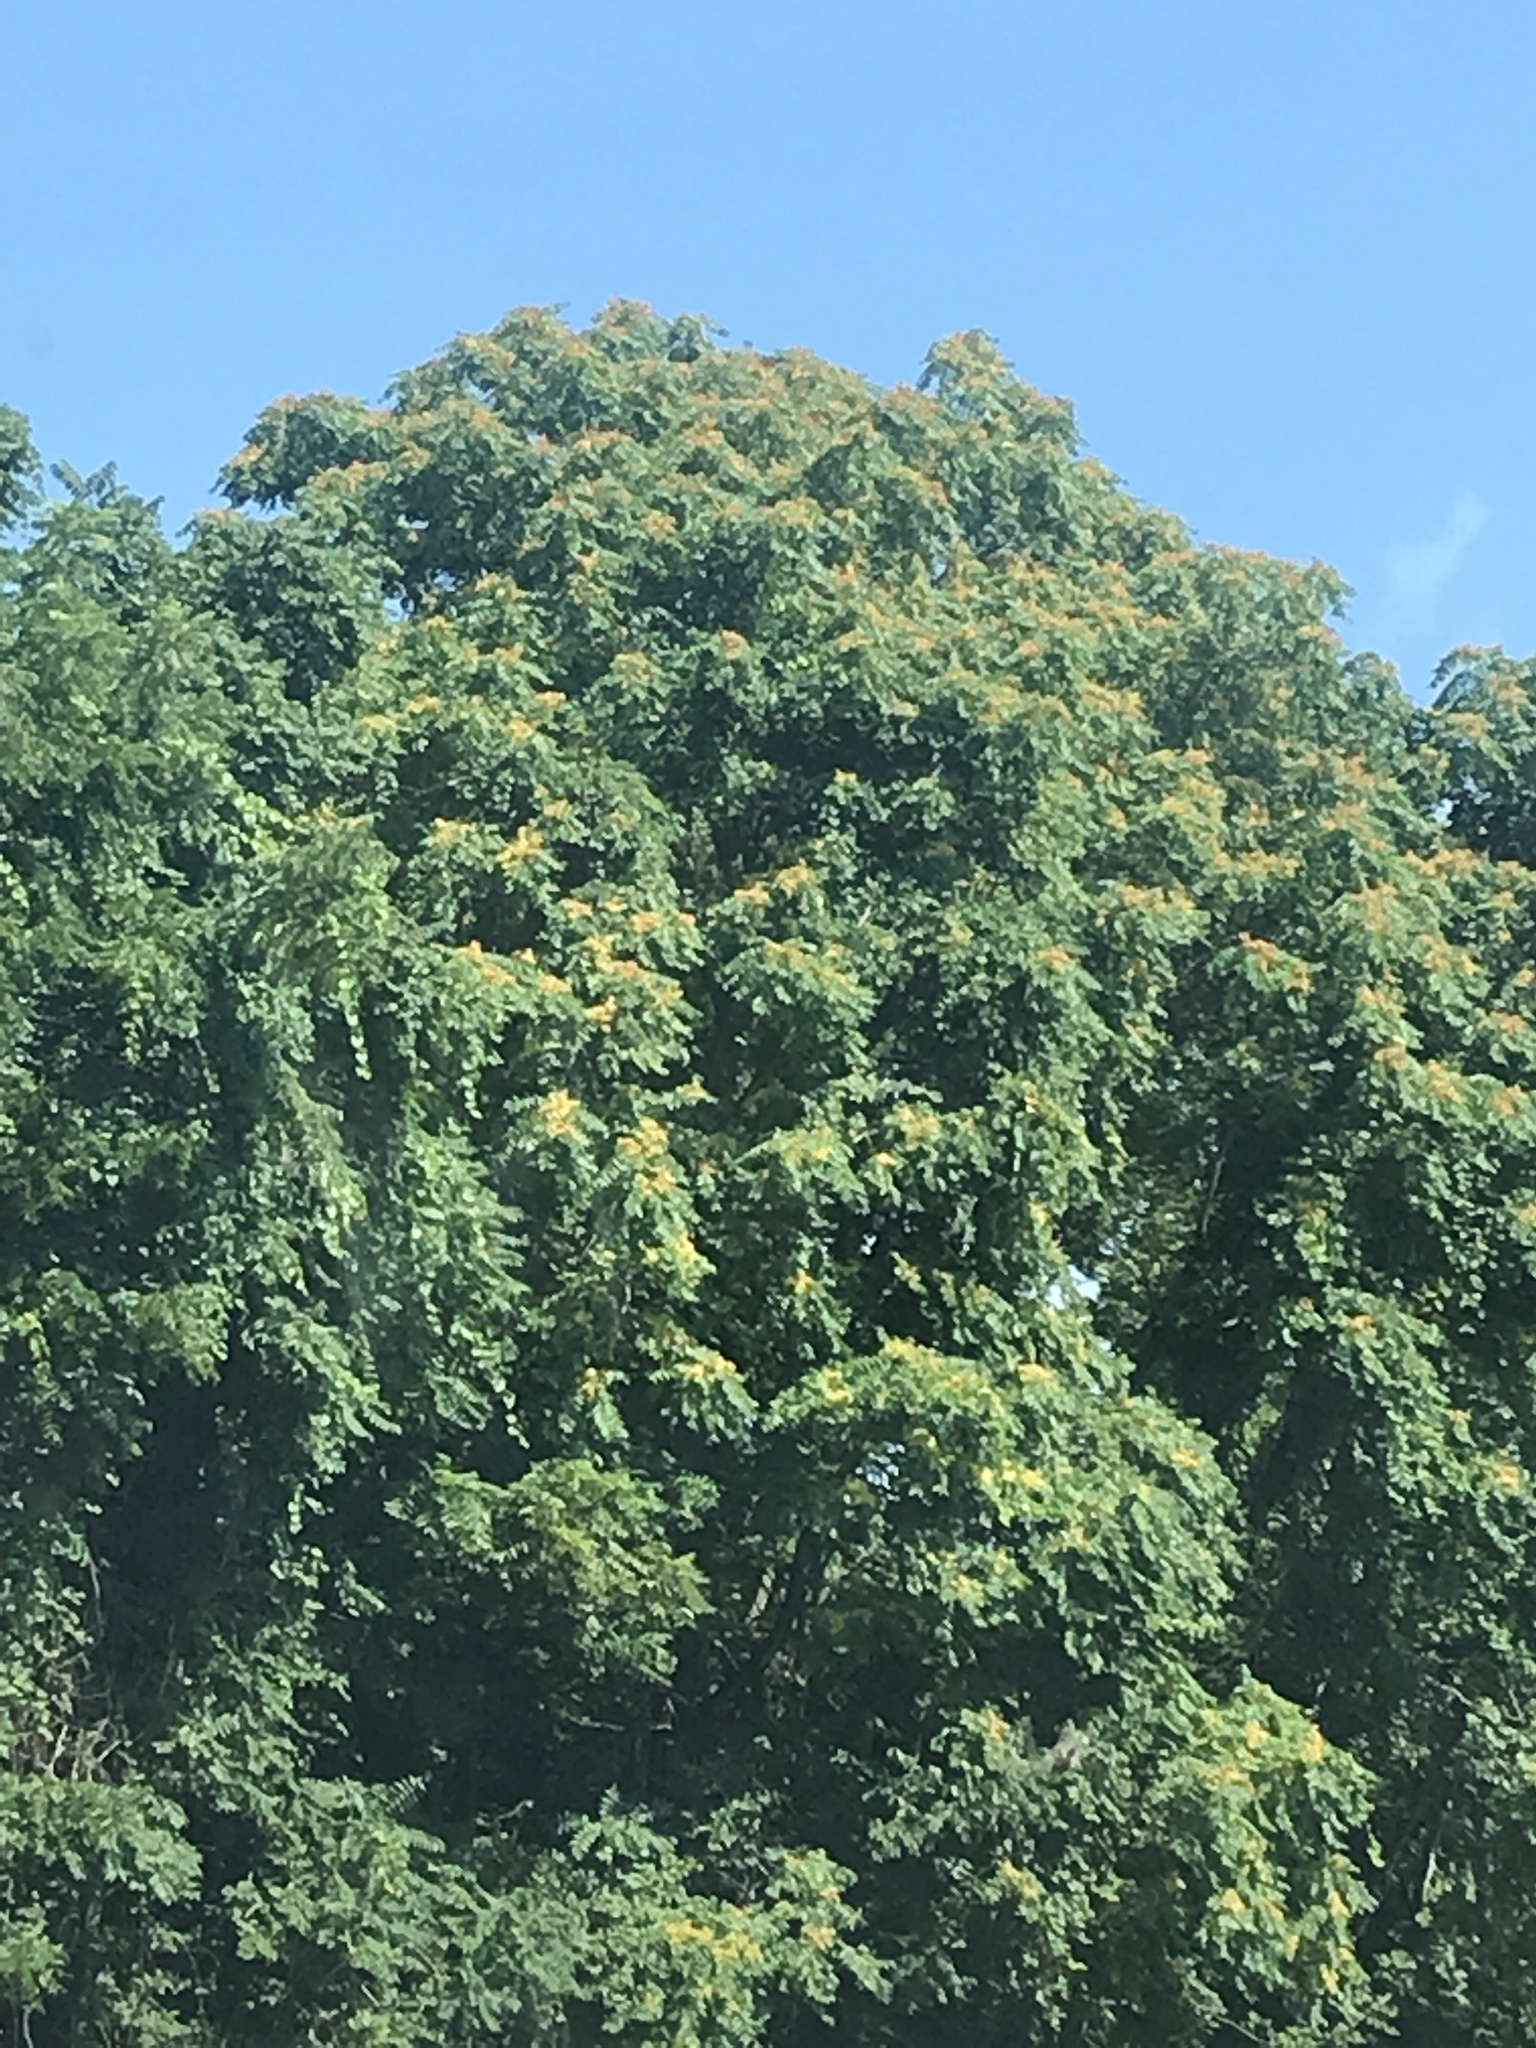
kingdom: Plantae
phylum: Tracheophyta
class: Magnoliopsida
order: Sapindales
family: Simaroubaceae
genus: Ailanthus
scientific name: Ailanthus altissima
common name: Tree-of-heaven
